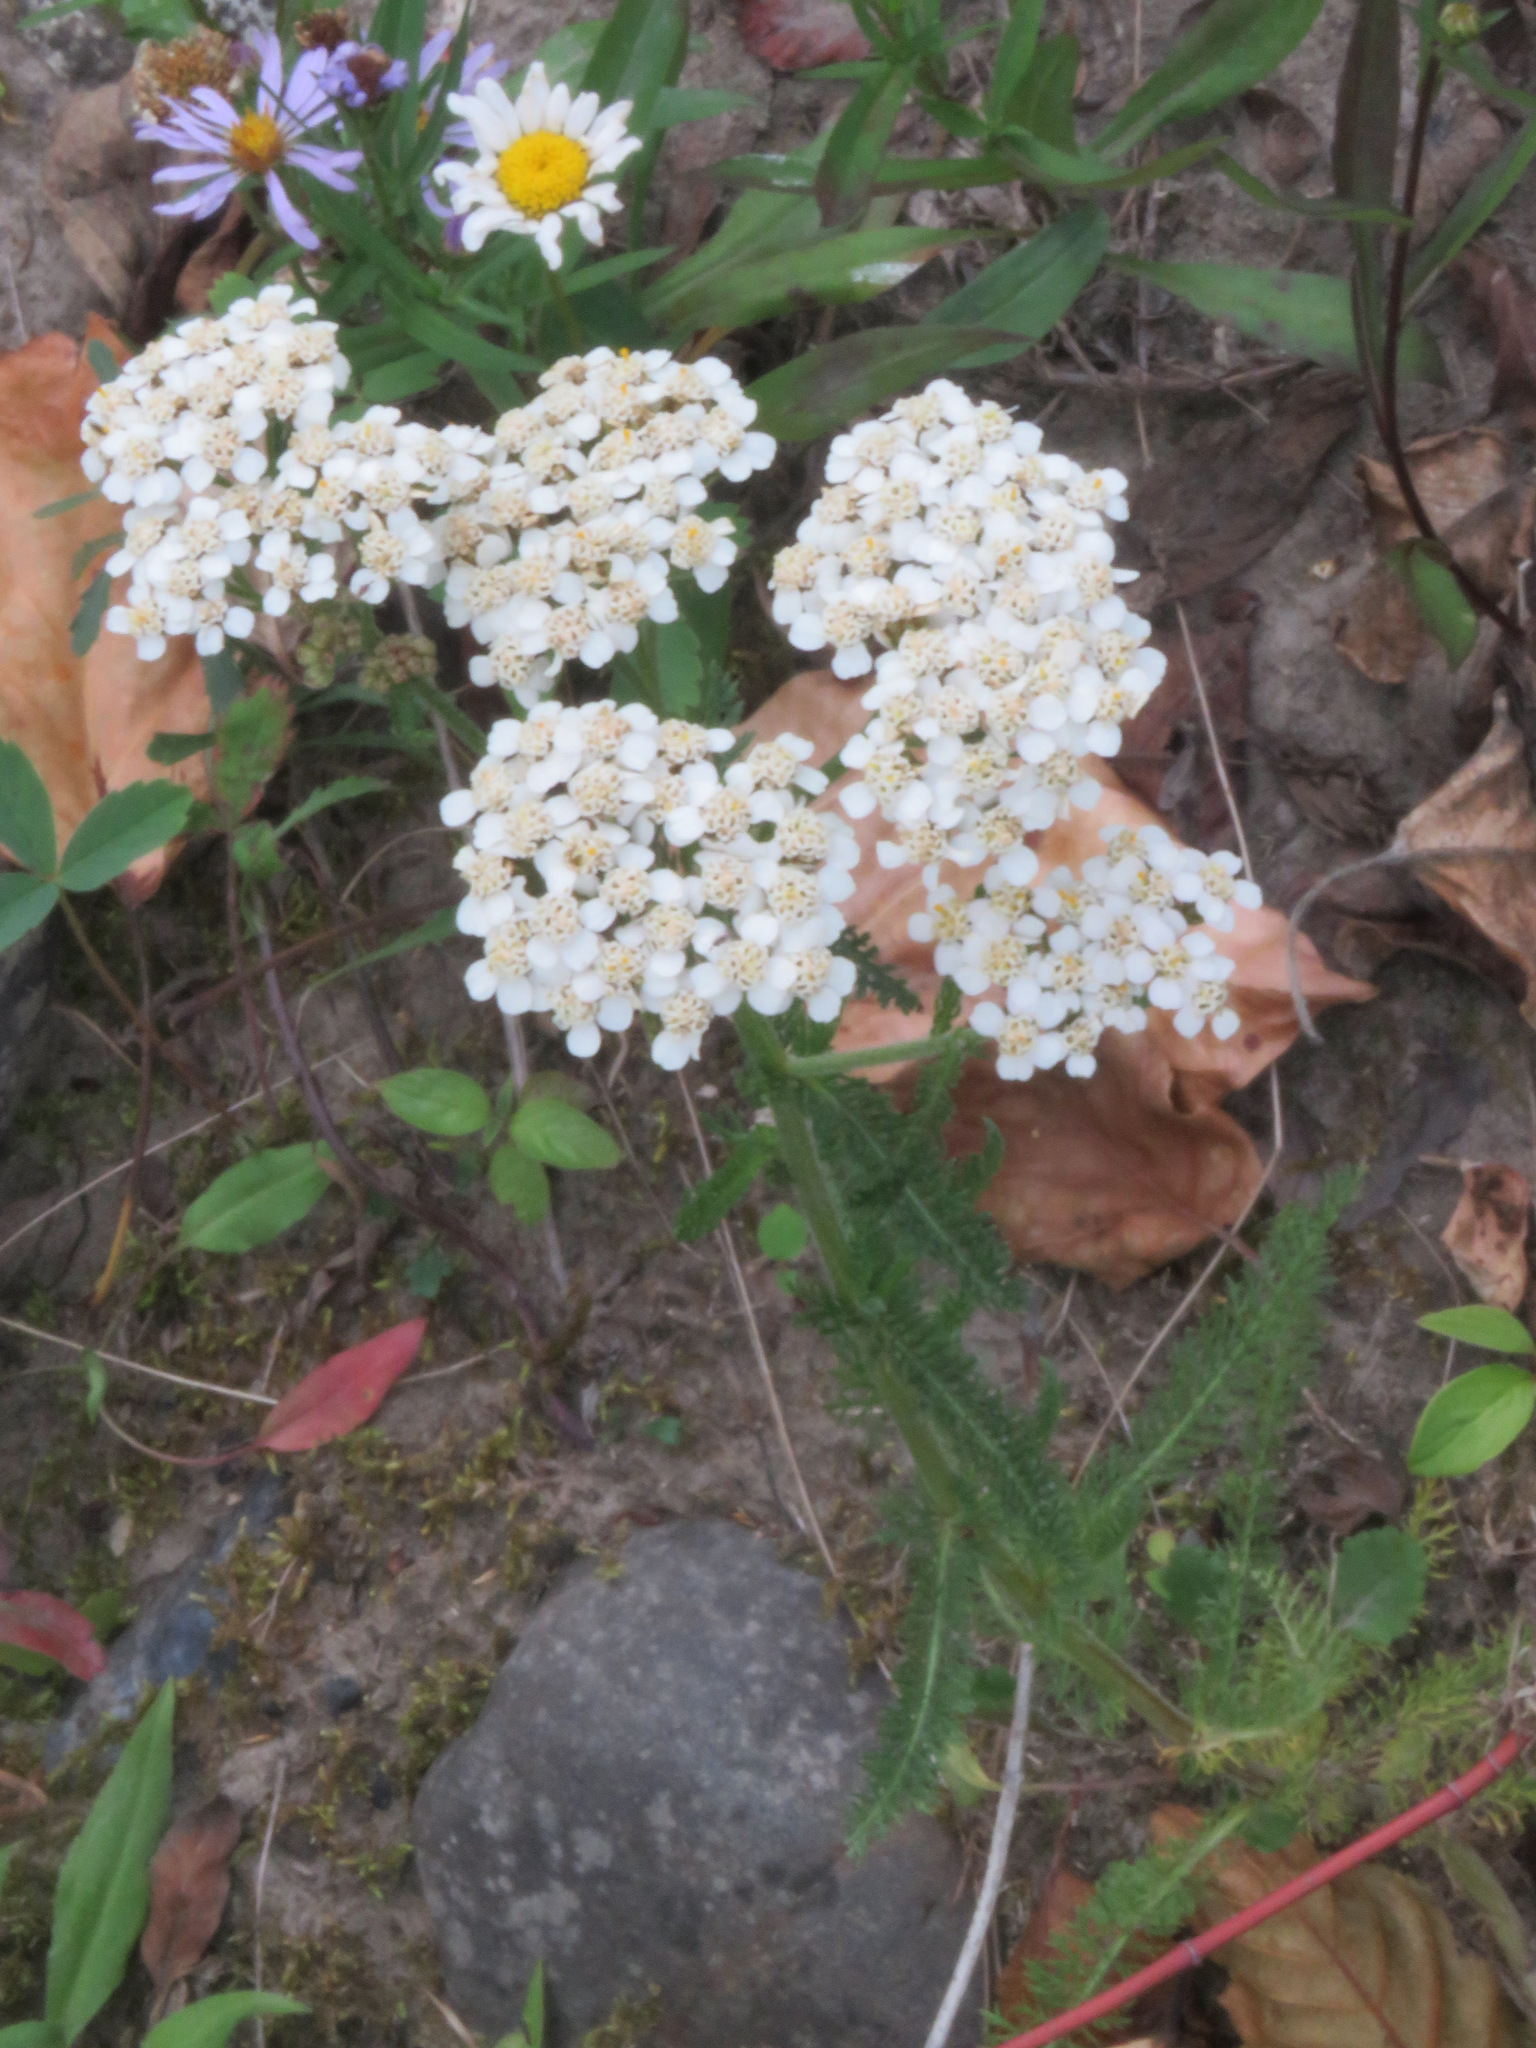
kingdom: Plantae
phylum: Tracheophyta
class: Magnoliopsida
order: Asterales
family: Asteraceae
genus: Achillea
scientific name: Achillea millefolium
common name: Yarrow
